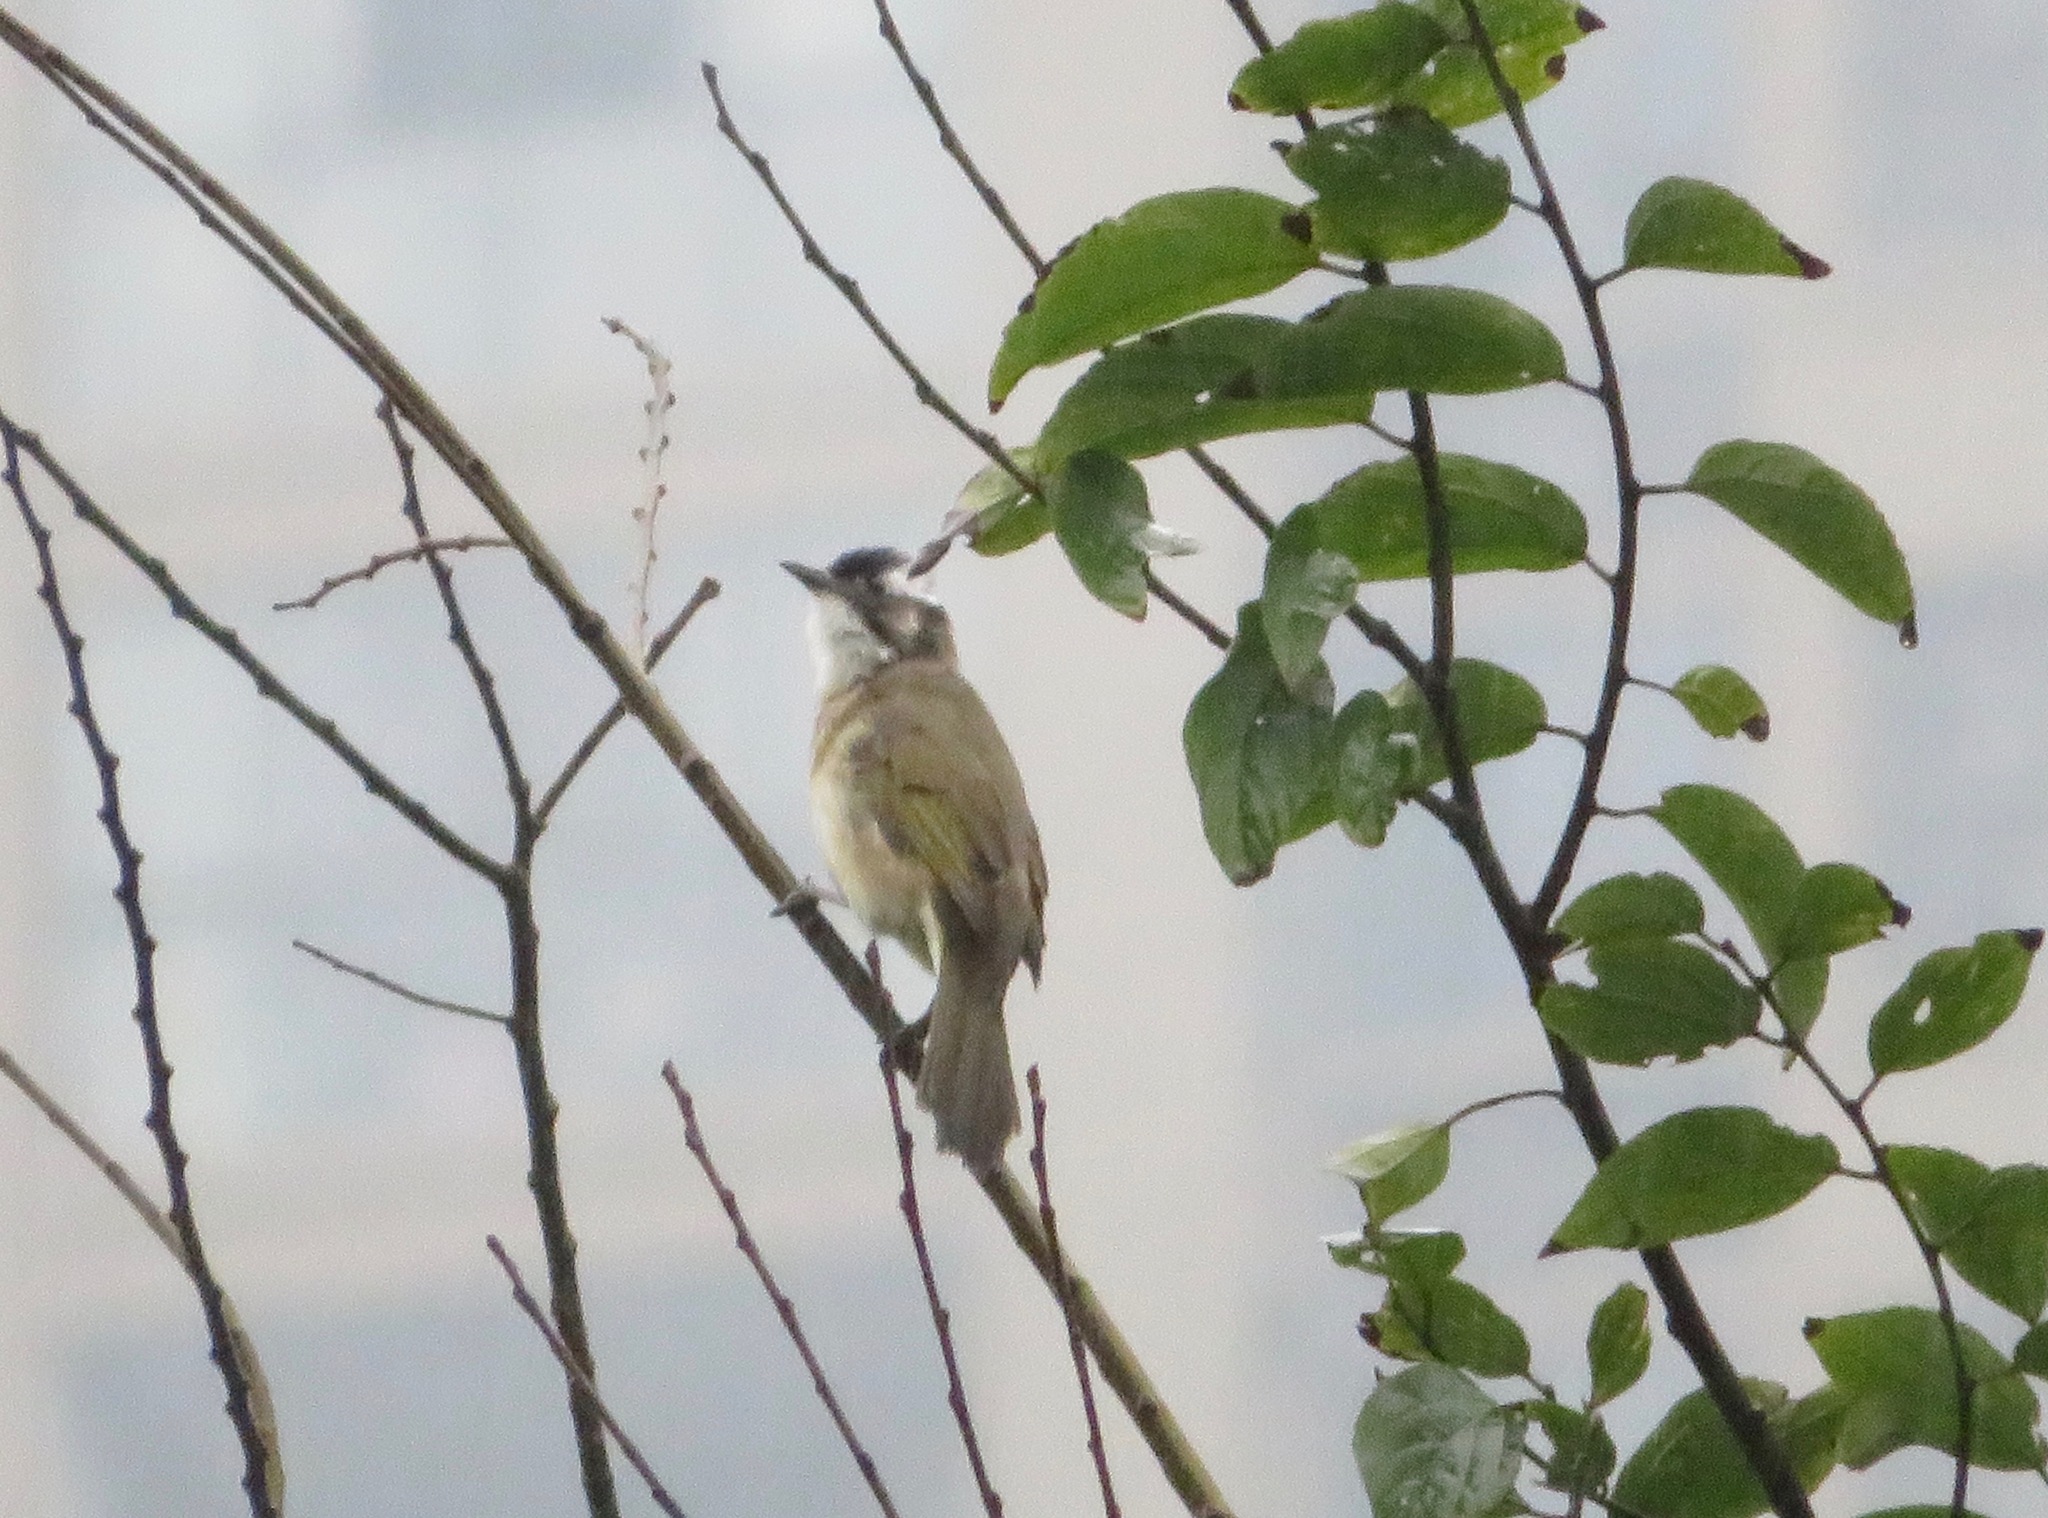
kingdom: Animalia
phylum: Chordata
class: Aves
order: Passeriformes
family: Pycnonotidae
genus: Pycnonotus
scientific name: Pycnonotus sinensis
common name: Light-vented bulbul
